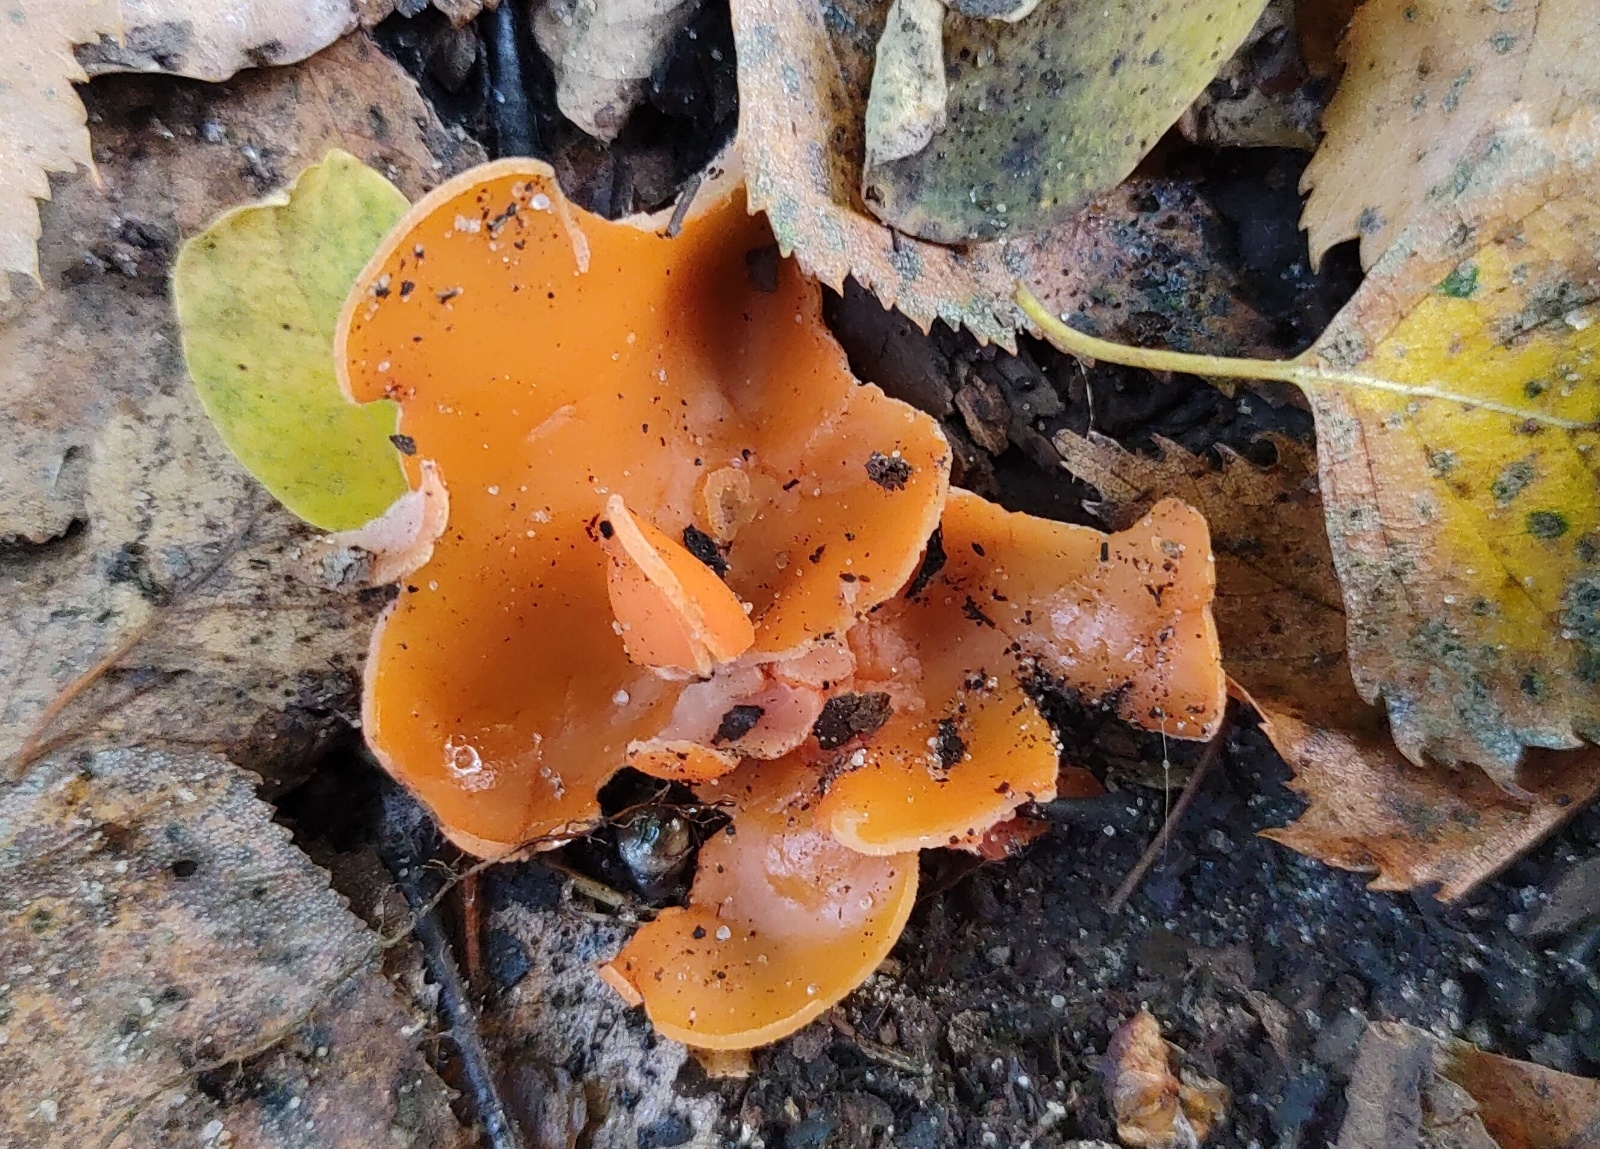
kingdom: Fungi
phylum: Ascomycota
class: Pezizomycetes
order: Pezizales
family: Pyronemataceae
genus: Aleuria
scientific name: Aleuria aurantia
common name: Orange peel fungus
